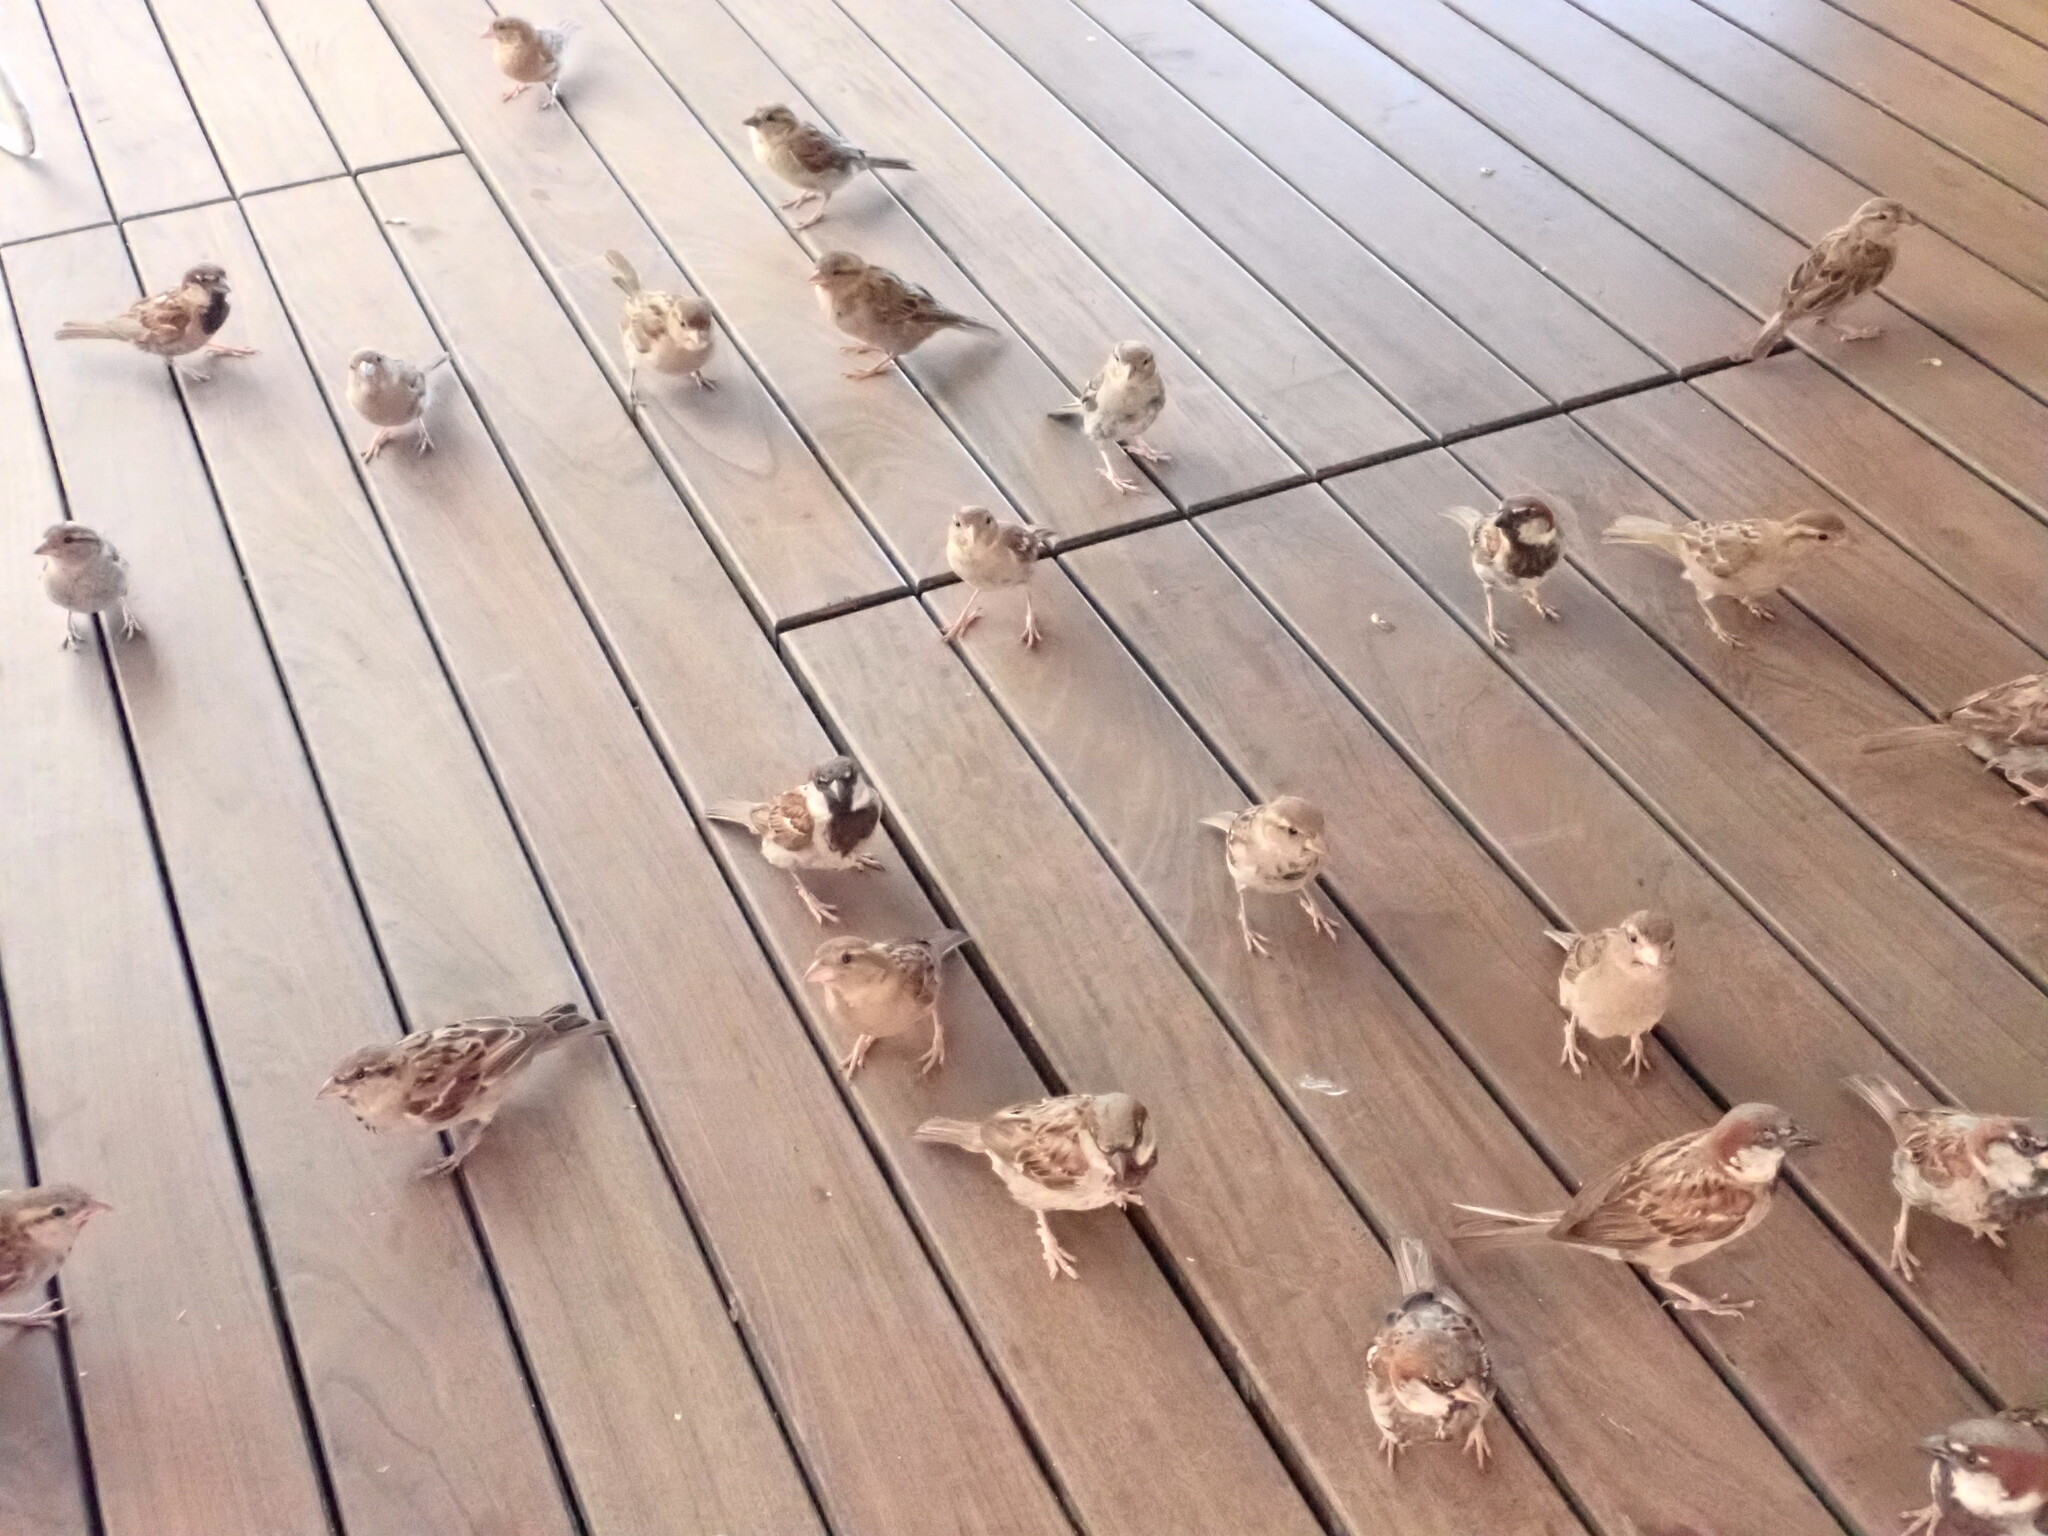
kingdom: Animalia
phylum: Chordata
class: Aves
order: Passeriformes
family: Passeridae
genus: Passer
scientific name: Passer domesticus
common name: House sparrow
